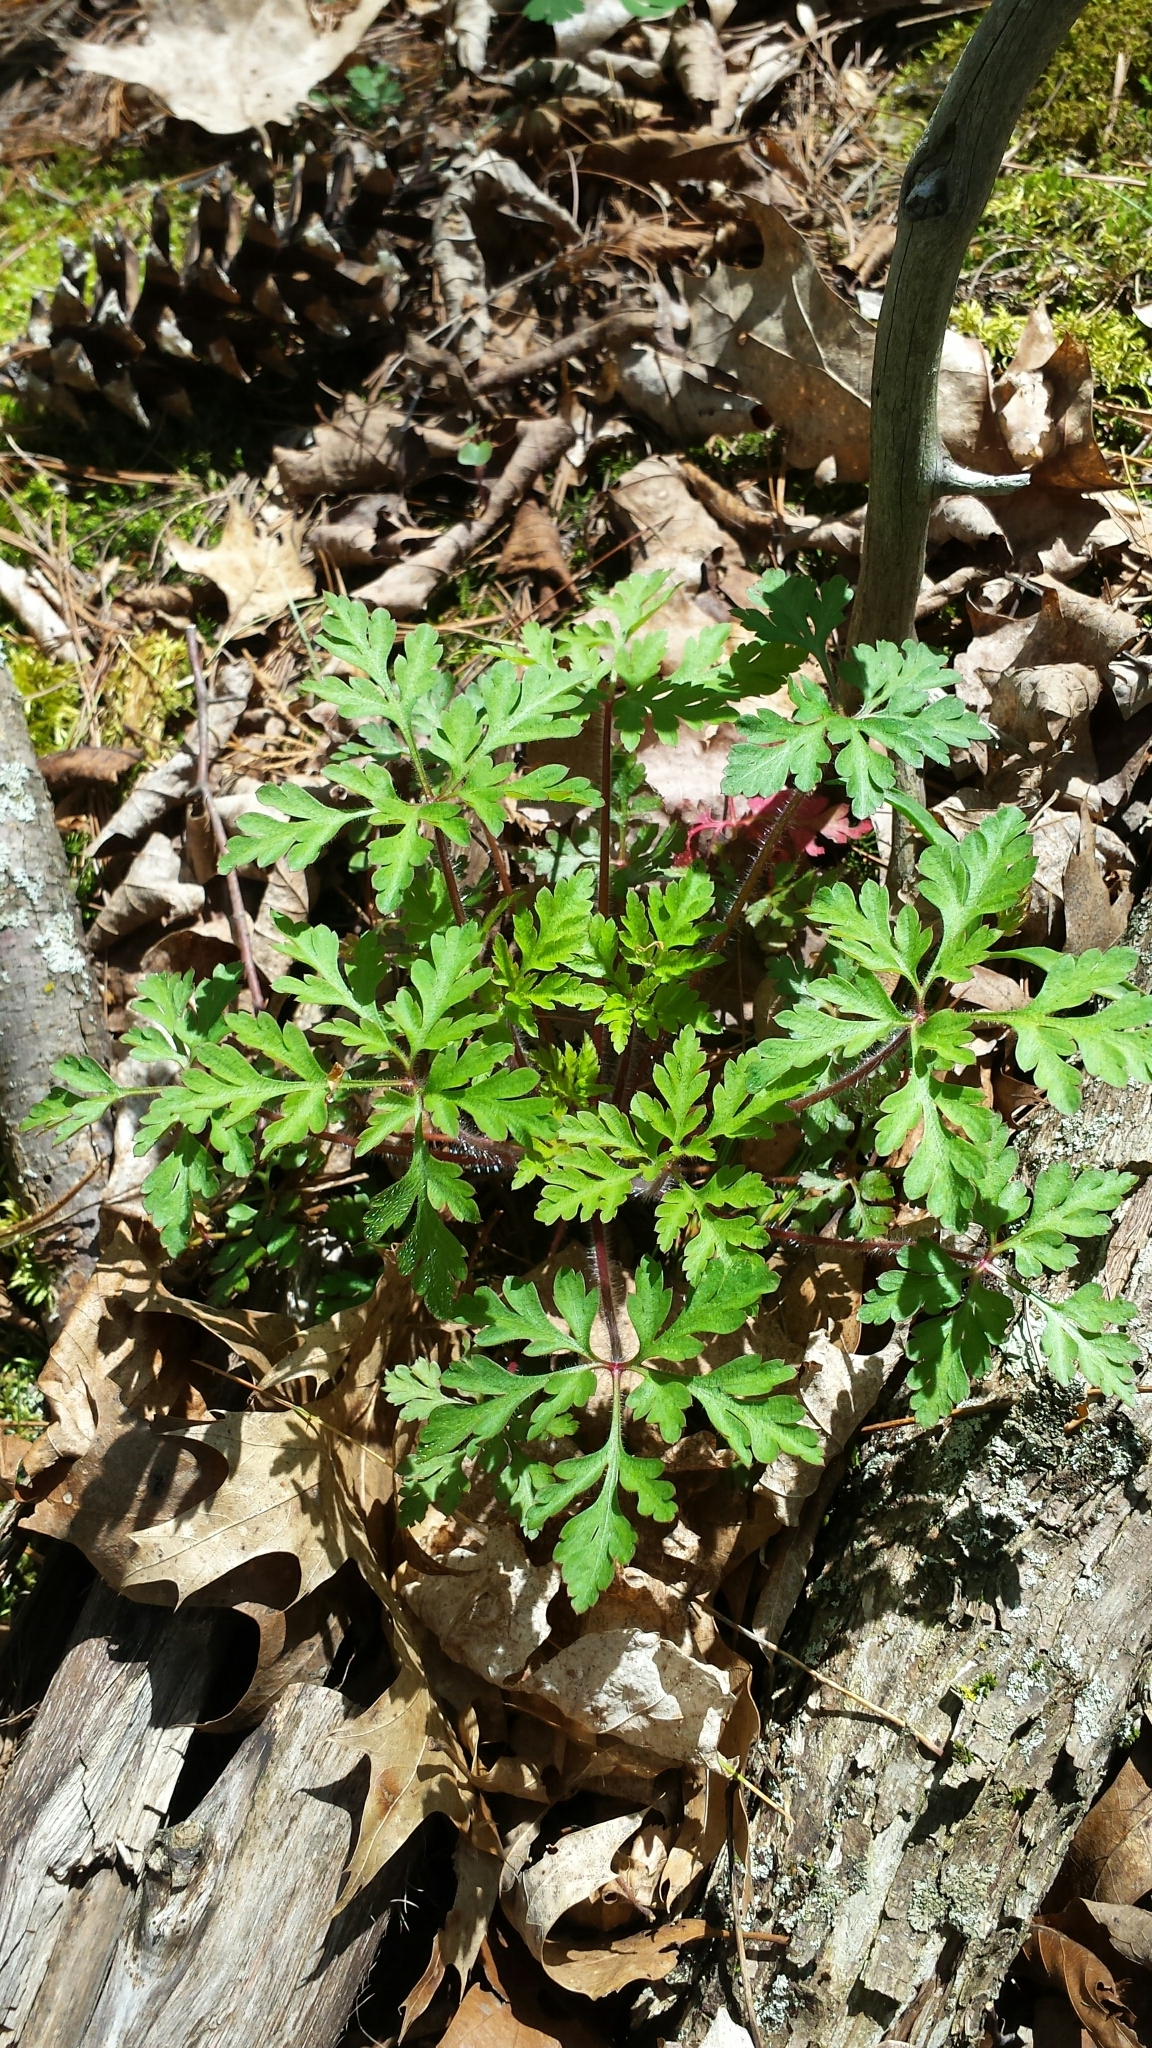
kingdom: Plantae
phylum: Tracheophyta
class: Magnoliopsida
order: Geraniales
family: Geraniaceae
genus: Geranium
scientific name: Geranium robertianum
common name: Herb-robert
